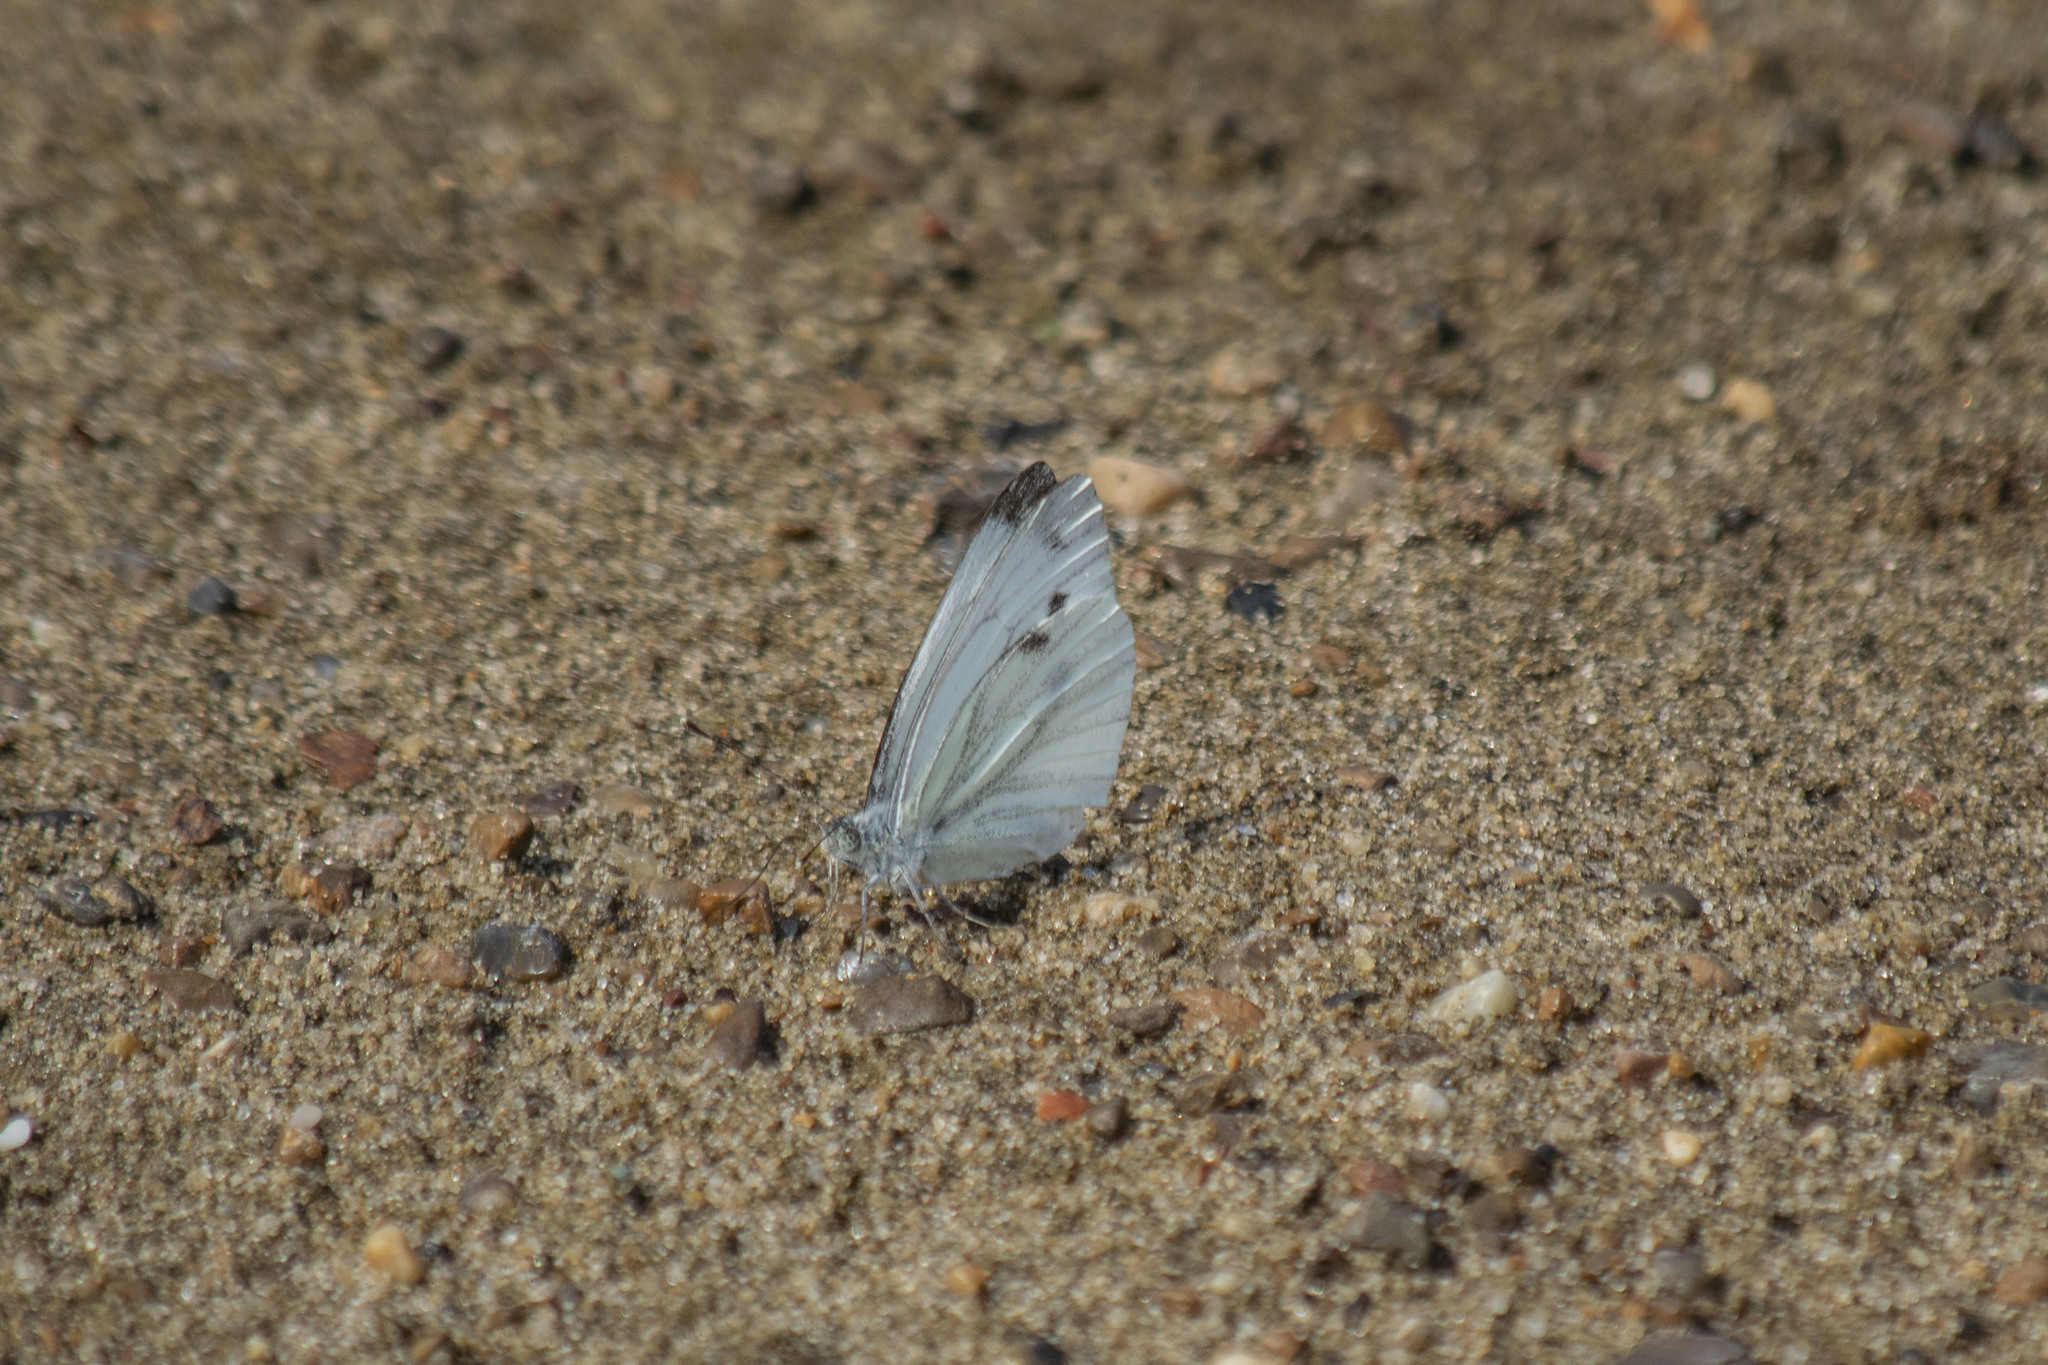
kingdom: Animalia
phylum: Arthropoda
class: Insecta
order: Lepidoptera
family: Pieridae
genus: Pieris
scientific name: Pieris napi
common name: Green-veined white
